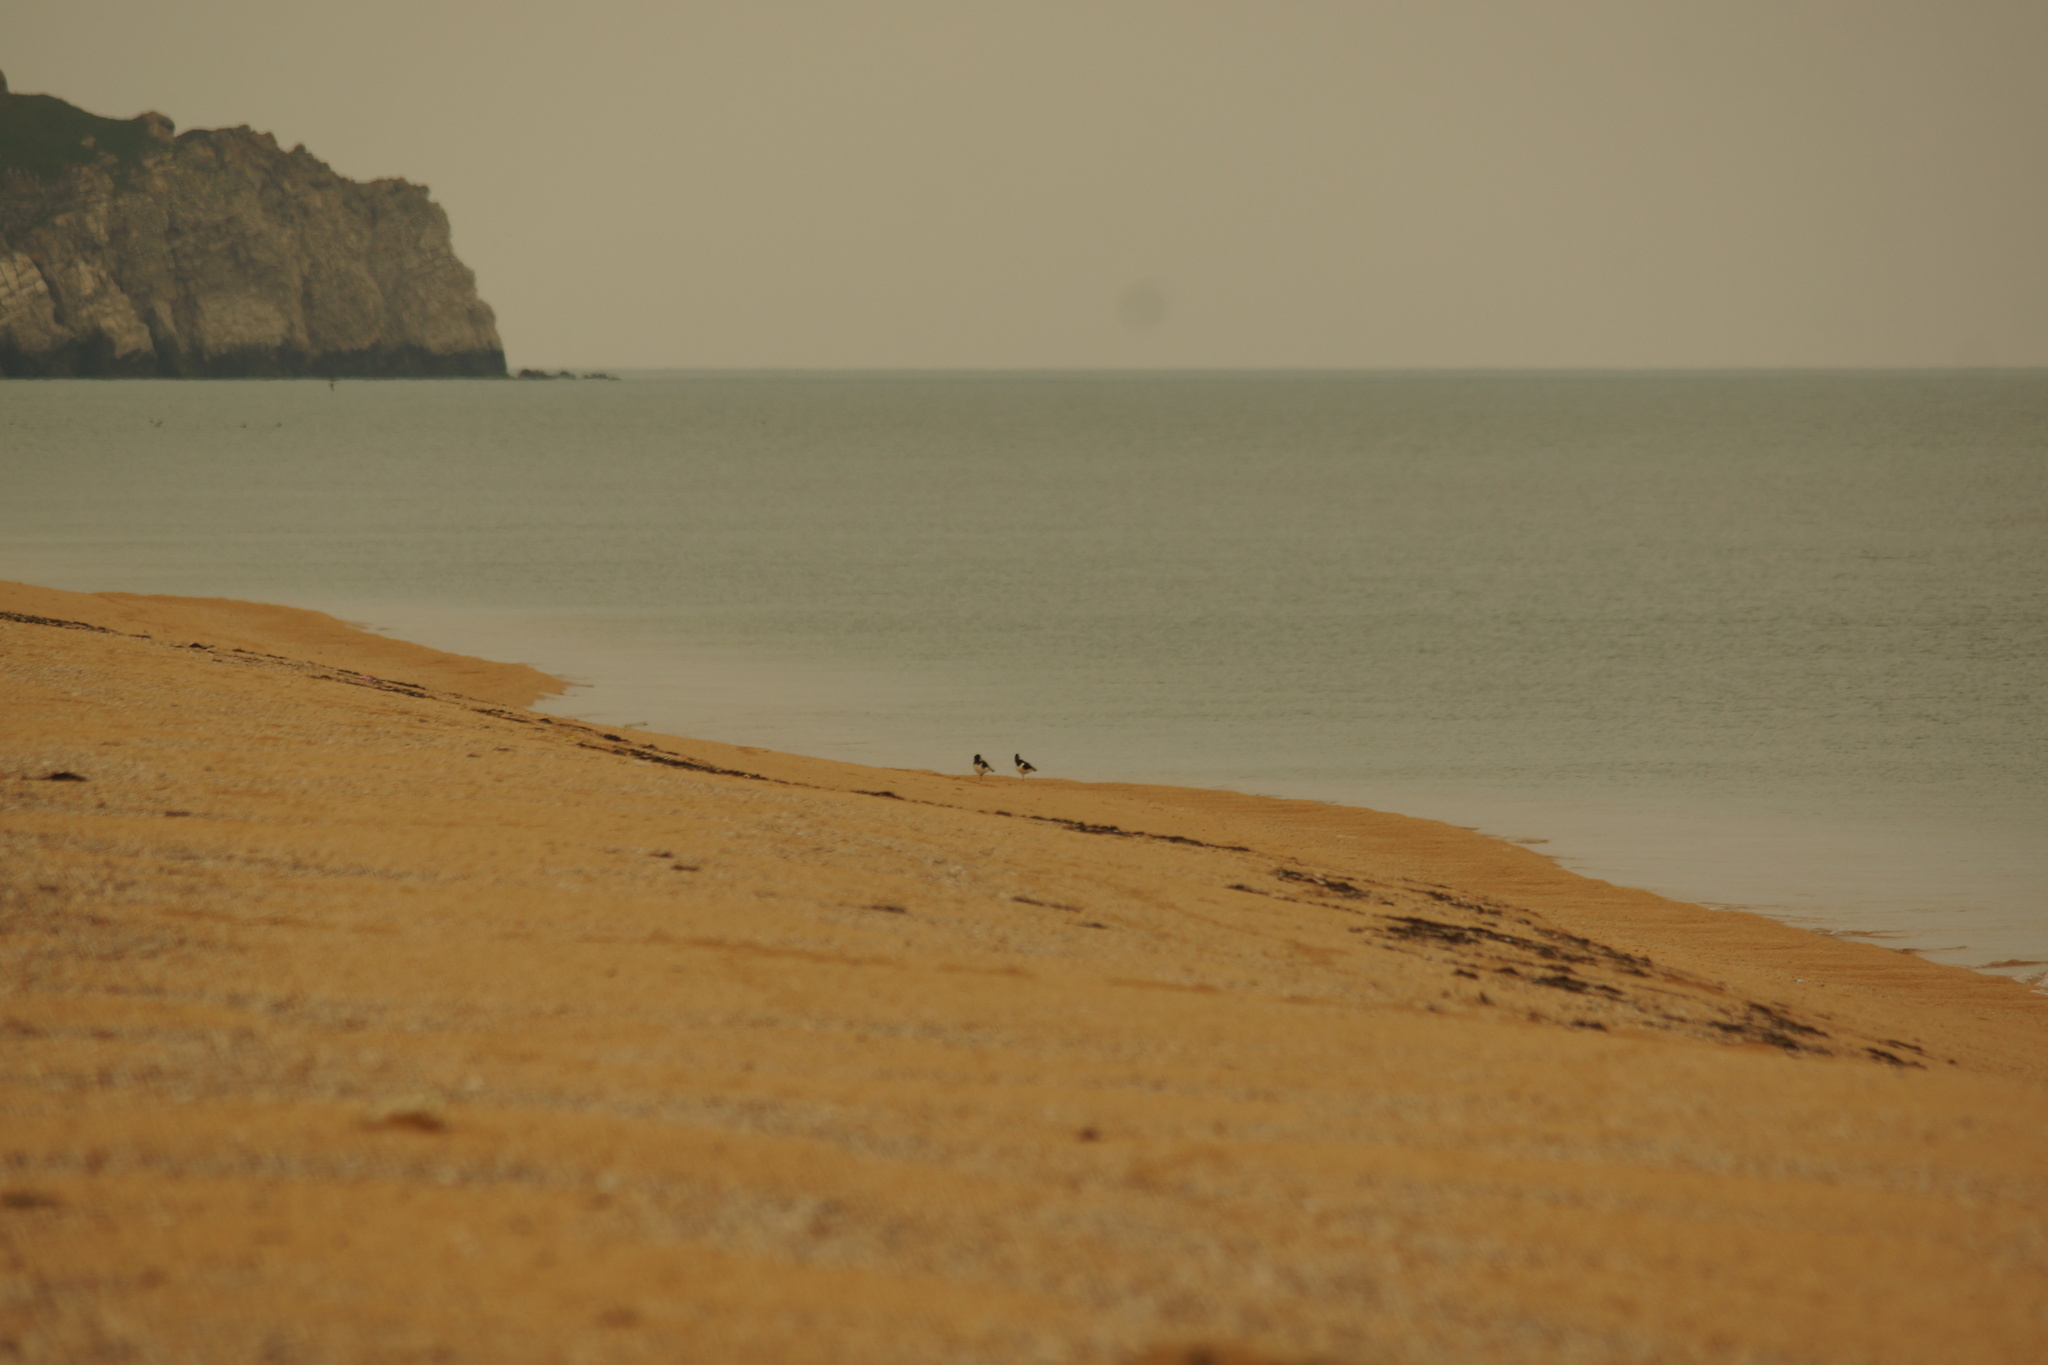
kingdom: Animalia
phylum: Chordata
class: Aves
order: Charadriiformes
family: Haematopodidae
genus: Haematopus
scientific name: Haematopus ostralegus
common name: Eurasian oystercatcher
